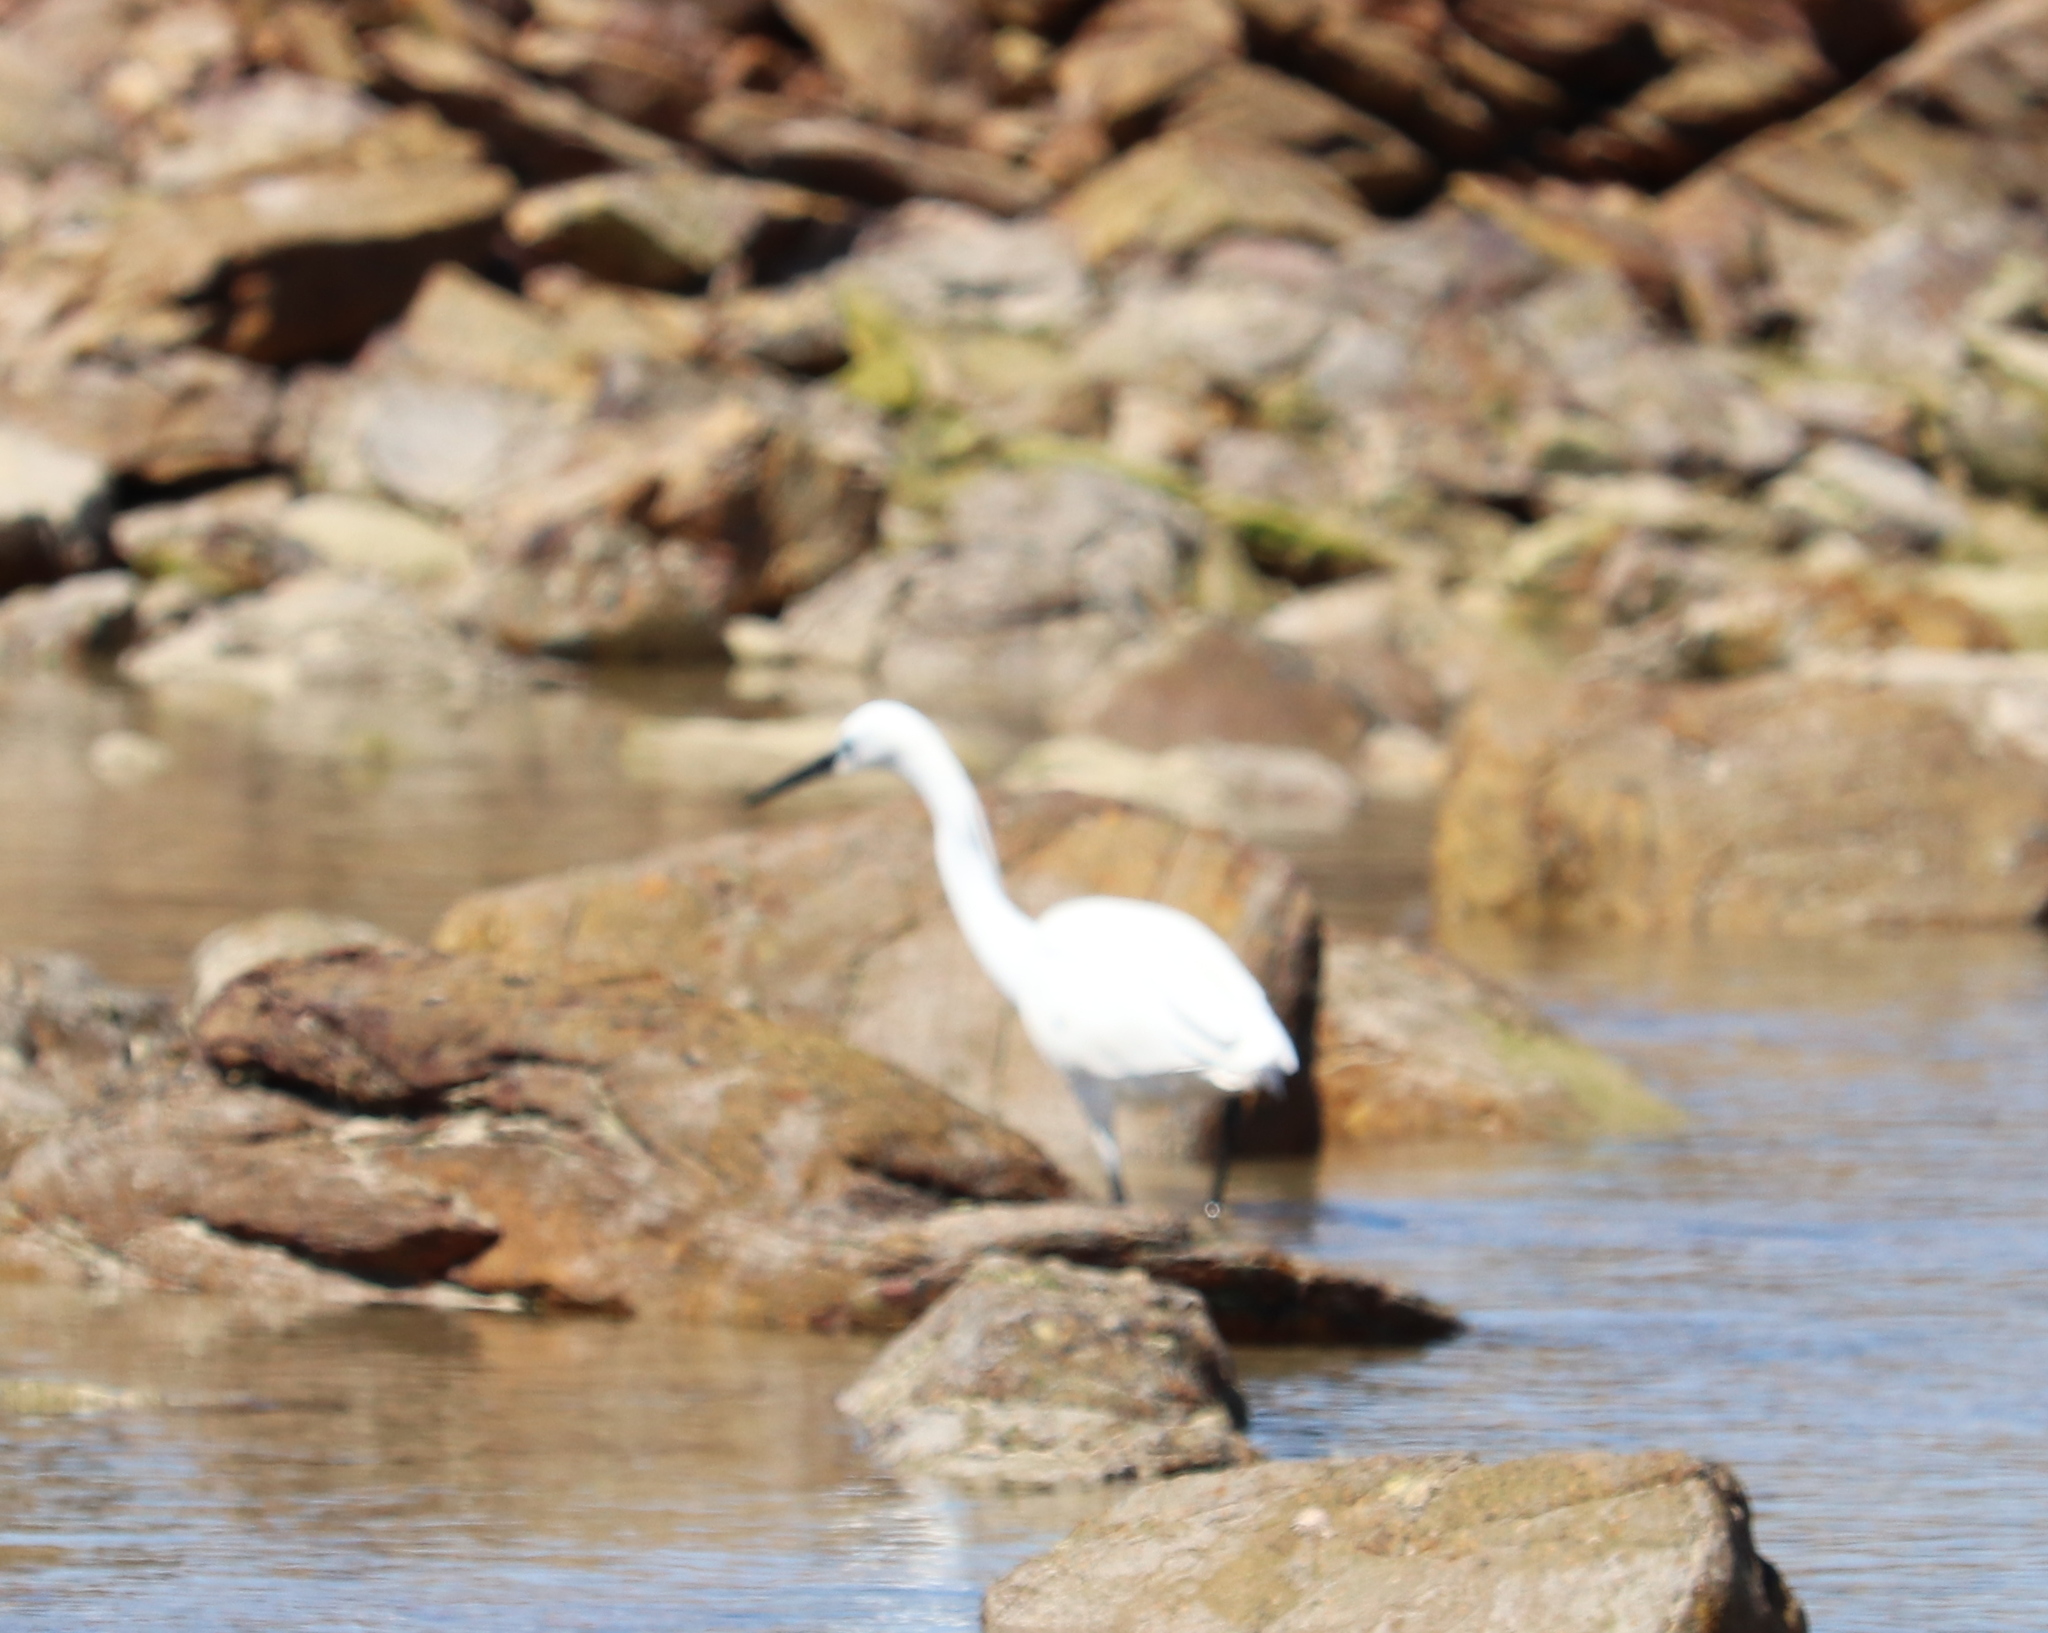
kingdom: Animalia
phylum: Chordata
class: Aves
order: Pelecaniformes
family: Ardeidae
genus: Egretta
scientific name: Egretta garzetta
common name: Little egret
